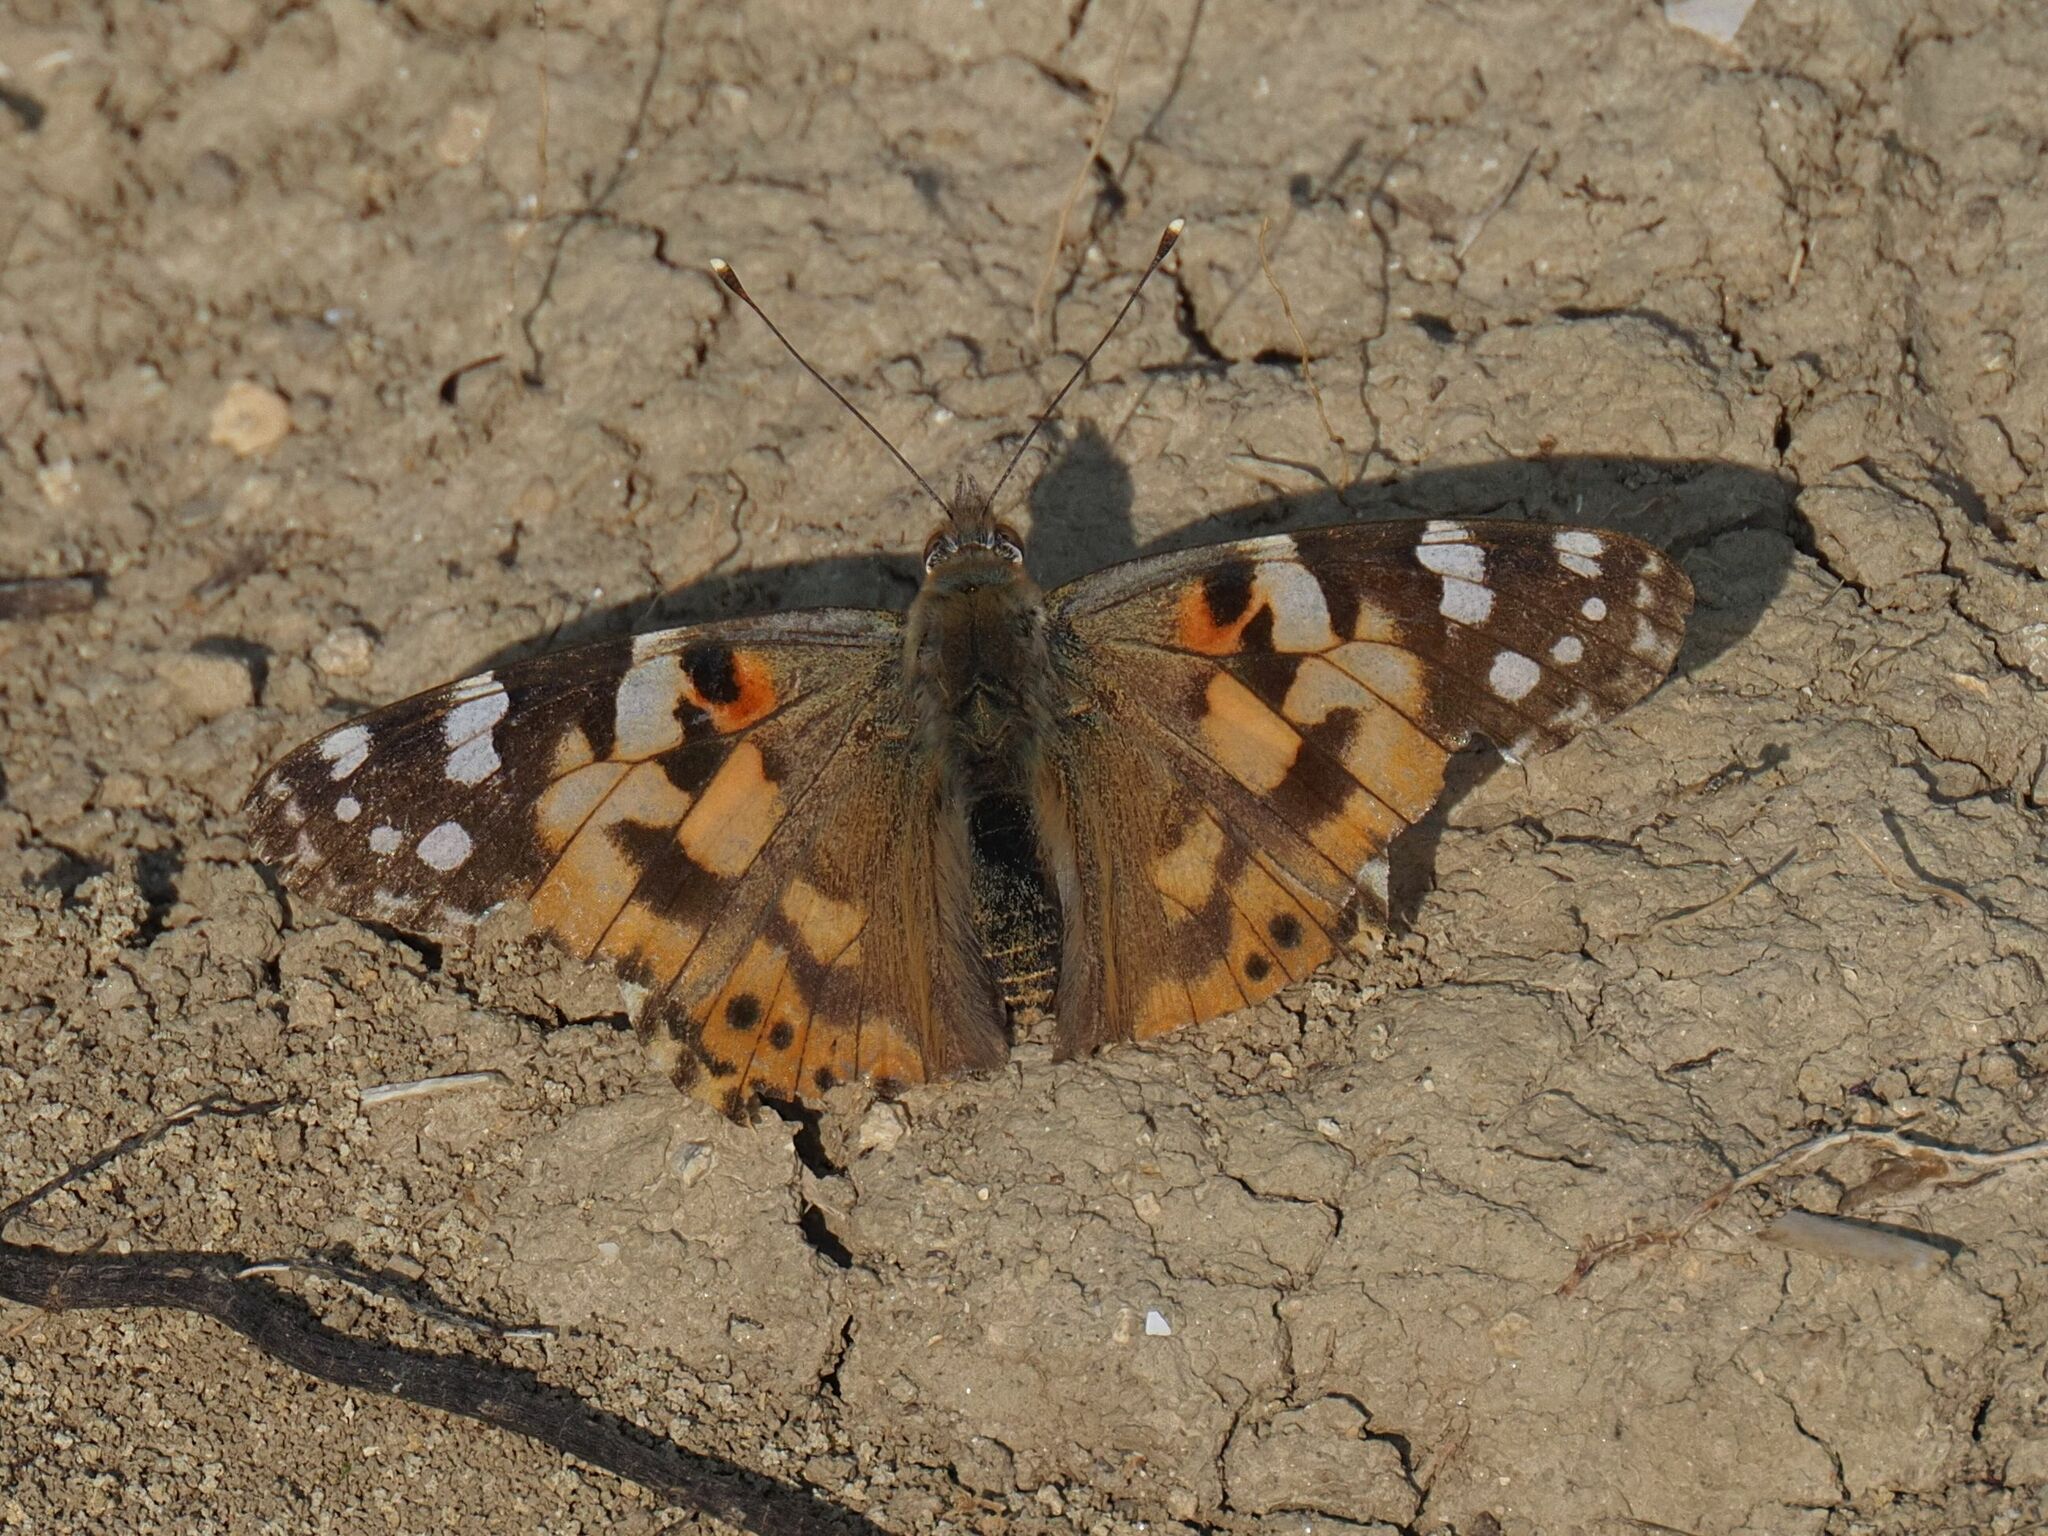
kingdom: Animalia
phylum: Arthropoda
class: Insecta
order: Lepidoptera
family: Nymphalidae
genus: Vanessa
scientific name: Vanessa cardui
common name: Painted lady
